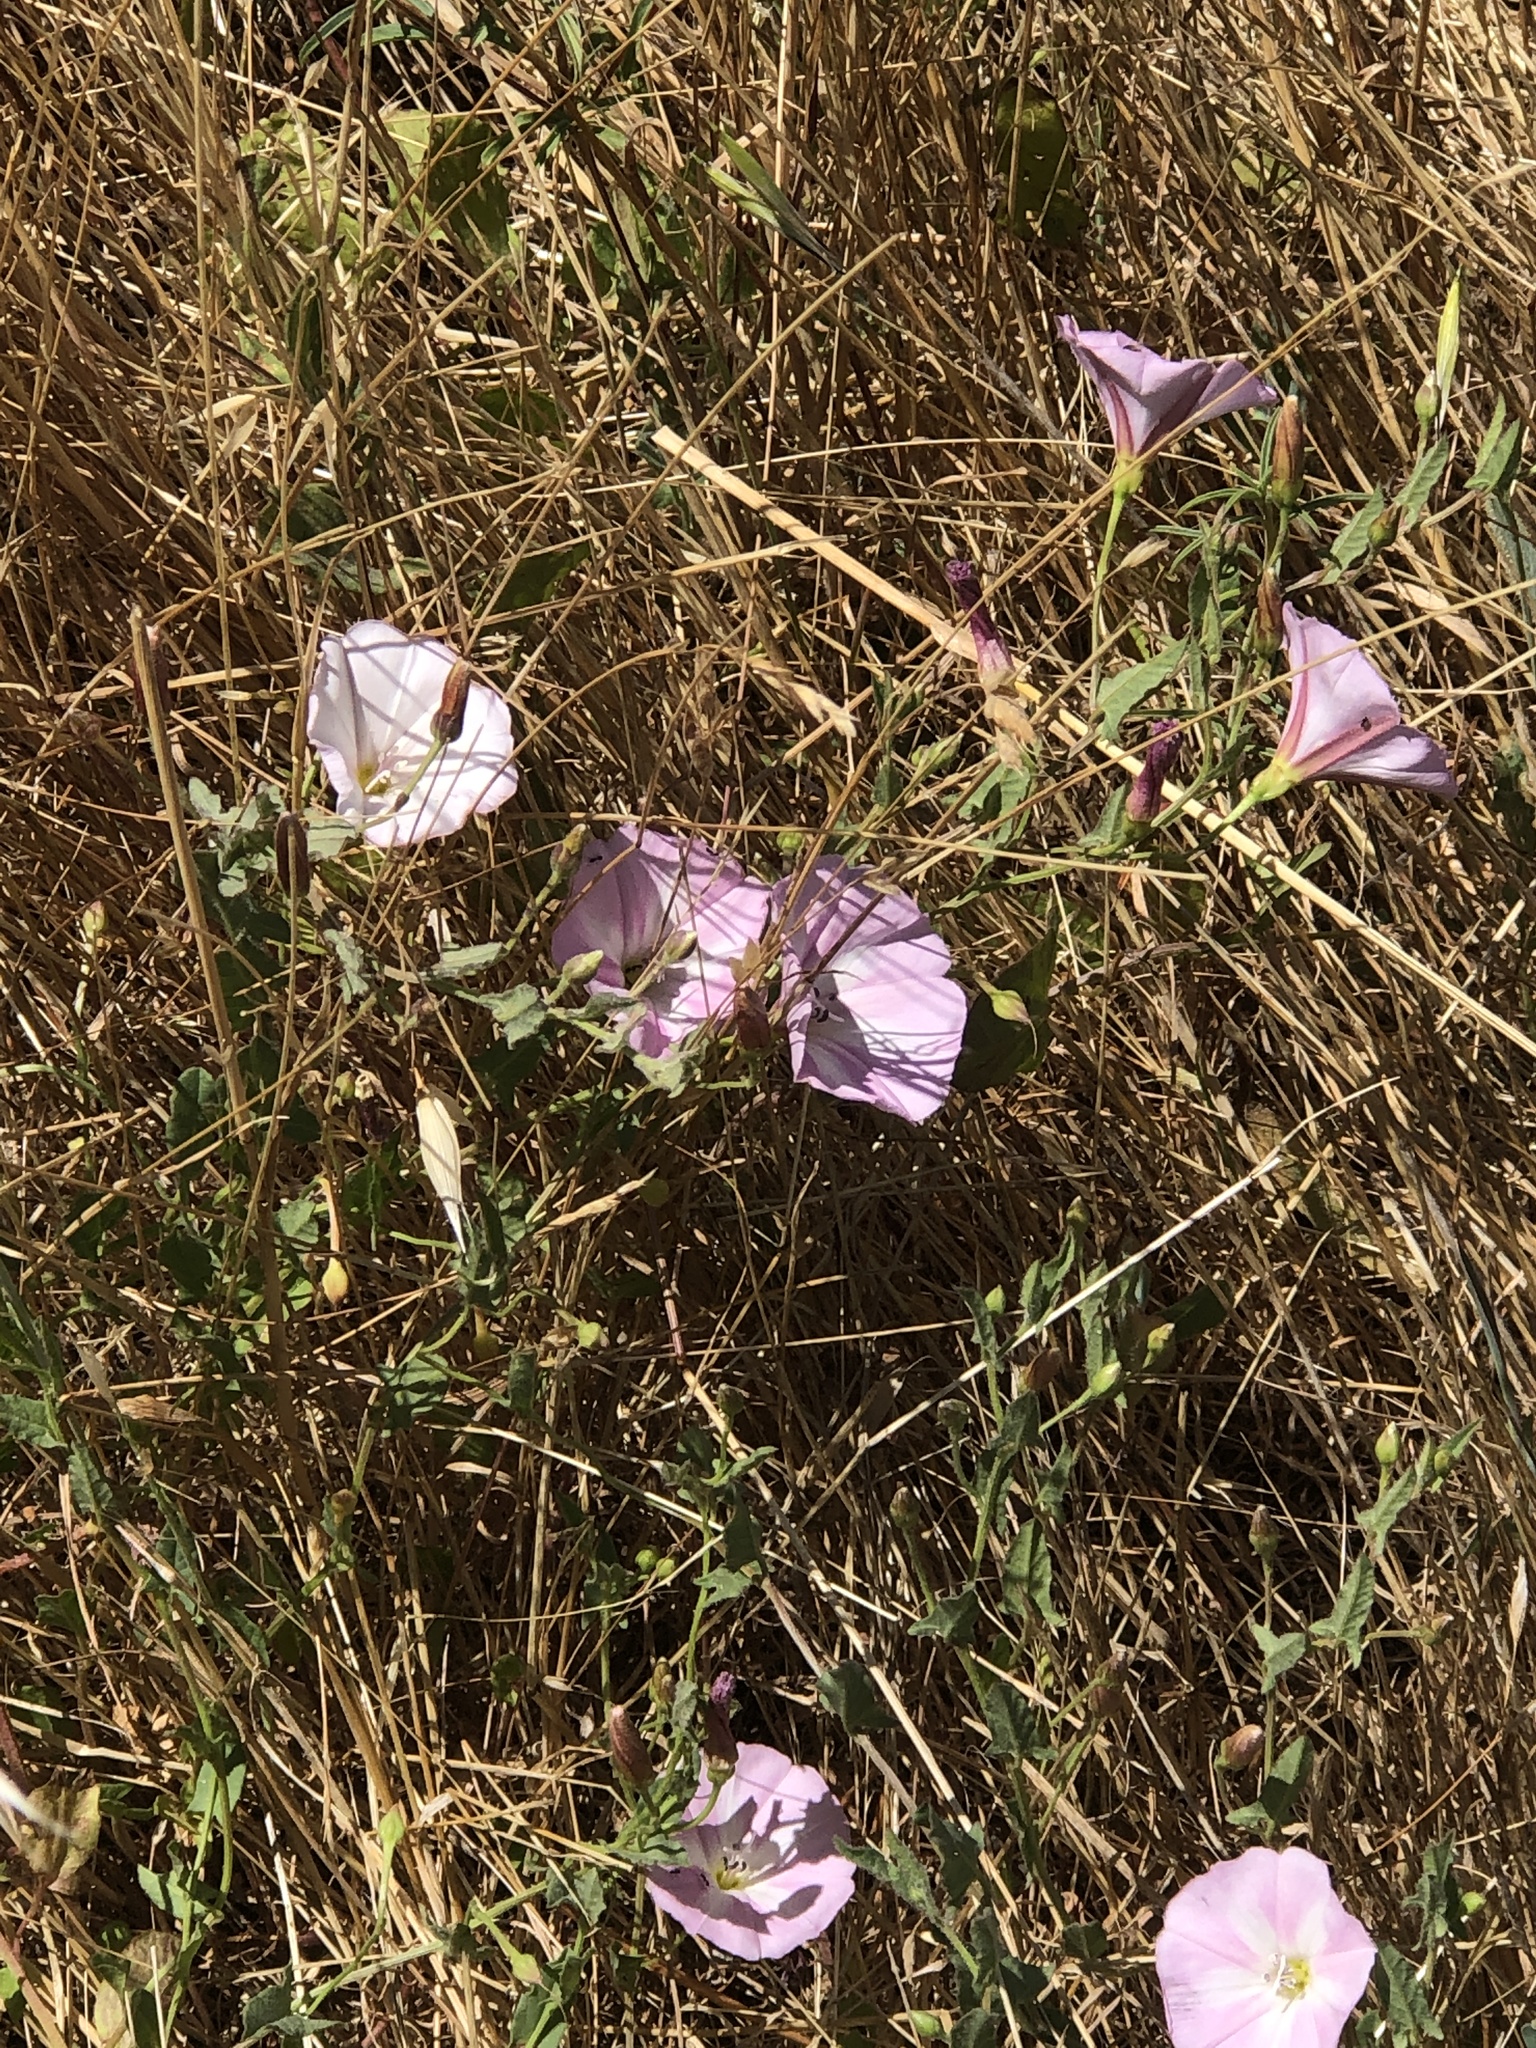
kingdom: Plantae
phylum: Tracheophyta
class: Magnoliopsida
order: Solanales
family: Convolvulaceae
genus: Convolvulus
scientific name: Convolvulus arvensis
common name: Field bindweed
